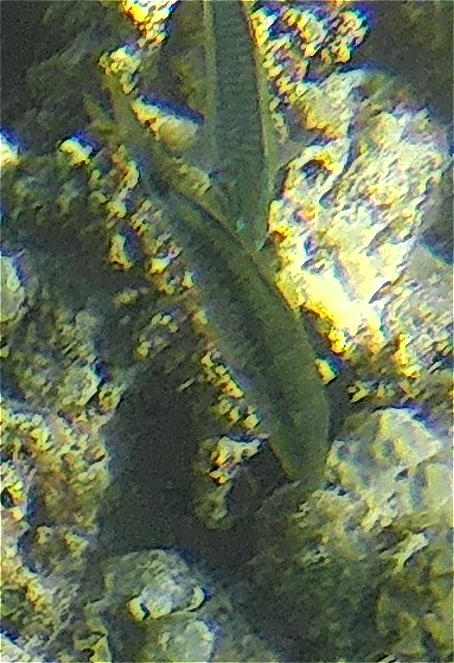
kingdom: Animalia
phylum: Chordata
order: Perciformes
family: Mullidae
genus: Parupeneus
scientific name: Parupeneus macronemus
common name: Long-barbel goatfish
